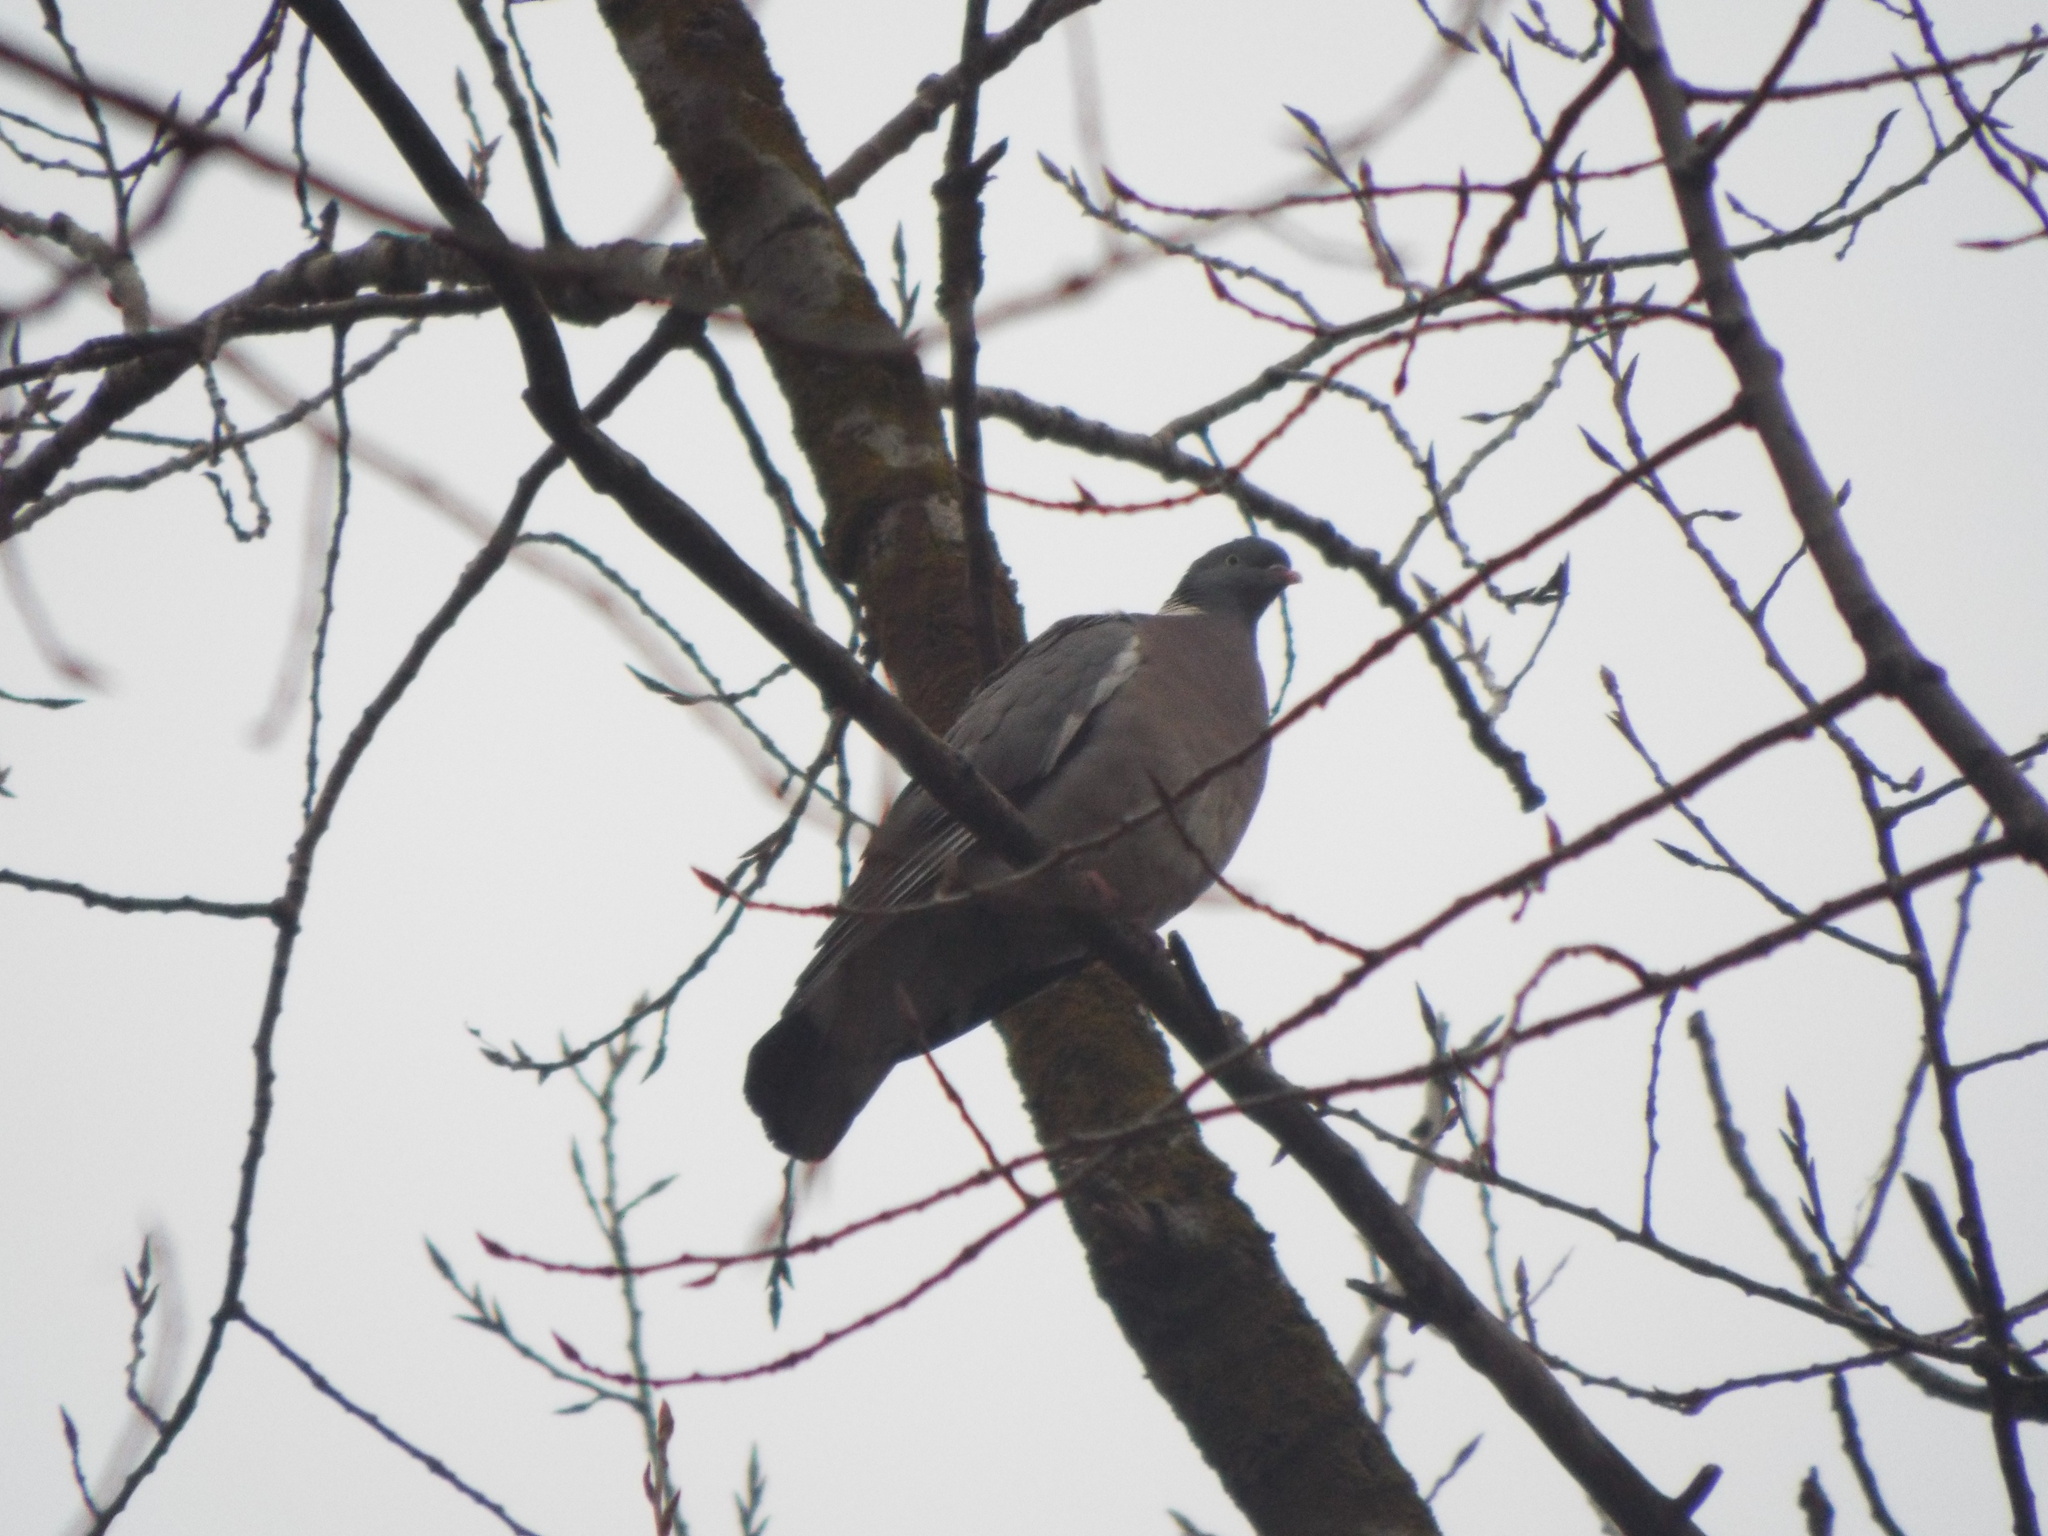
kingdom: Animalia
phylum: Chordata
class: Aves
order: Columbiformes
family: Columbidae
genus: Columba
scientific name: Columba palumbus
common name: Common wood pigeon
